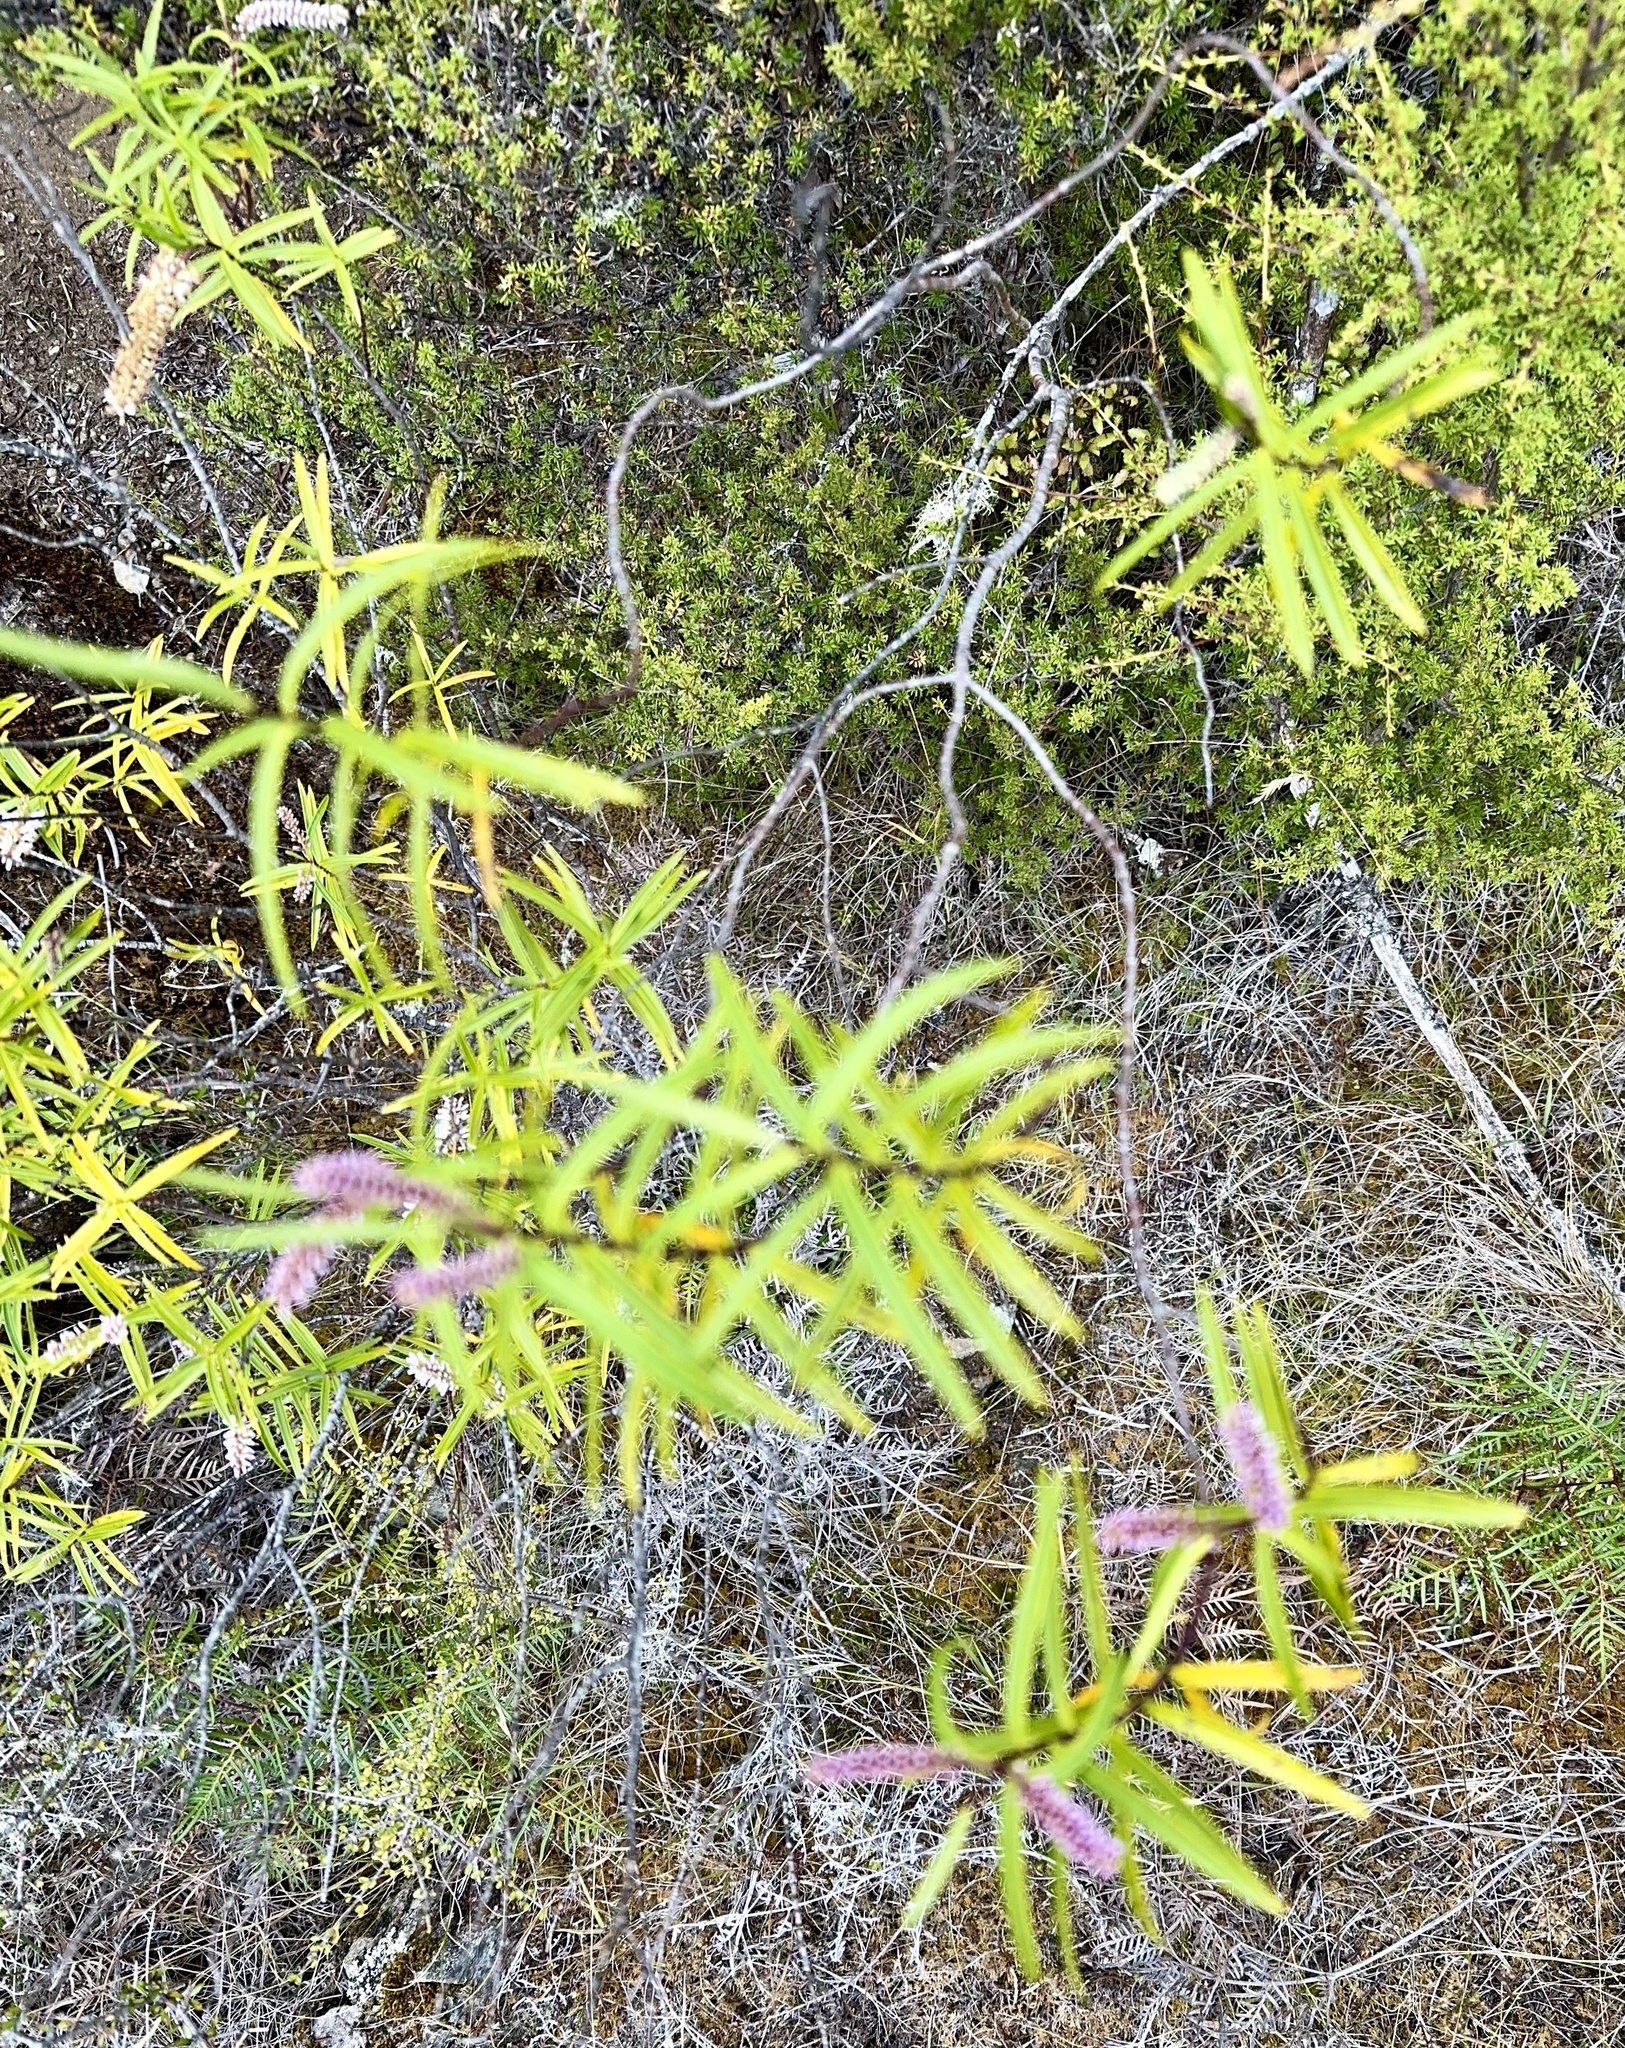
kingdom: Plantae
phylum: Tracheophyta
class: Magnoliopsida
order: Lamiales
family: Plantaginaceae
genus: Veronica
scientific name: Veronica stenophylla
